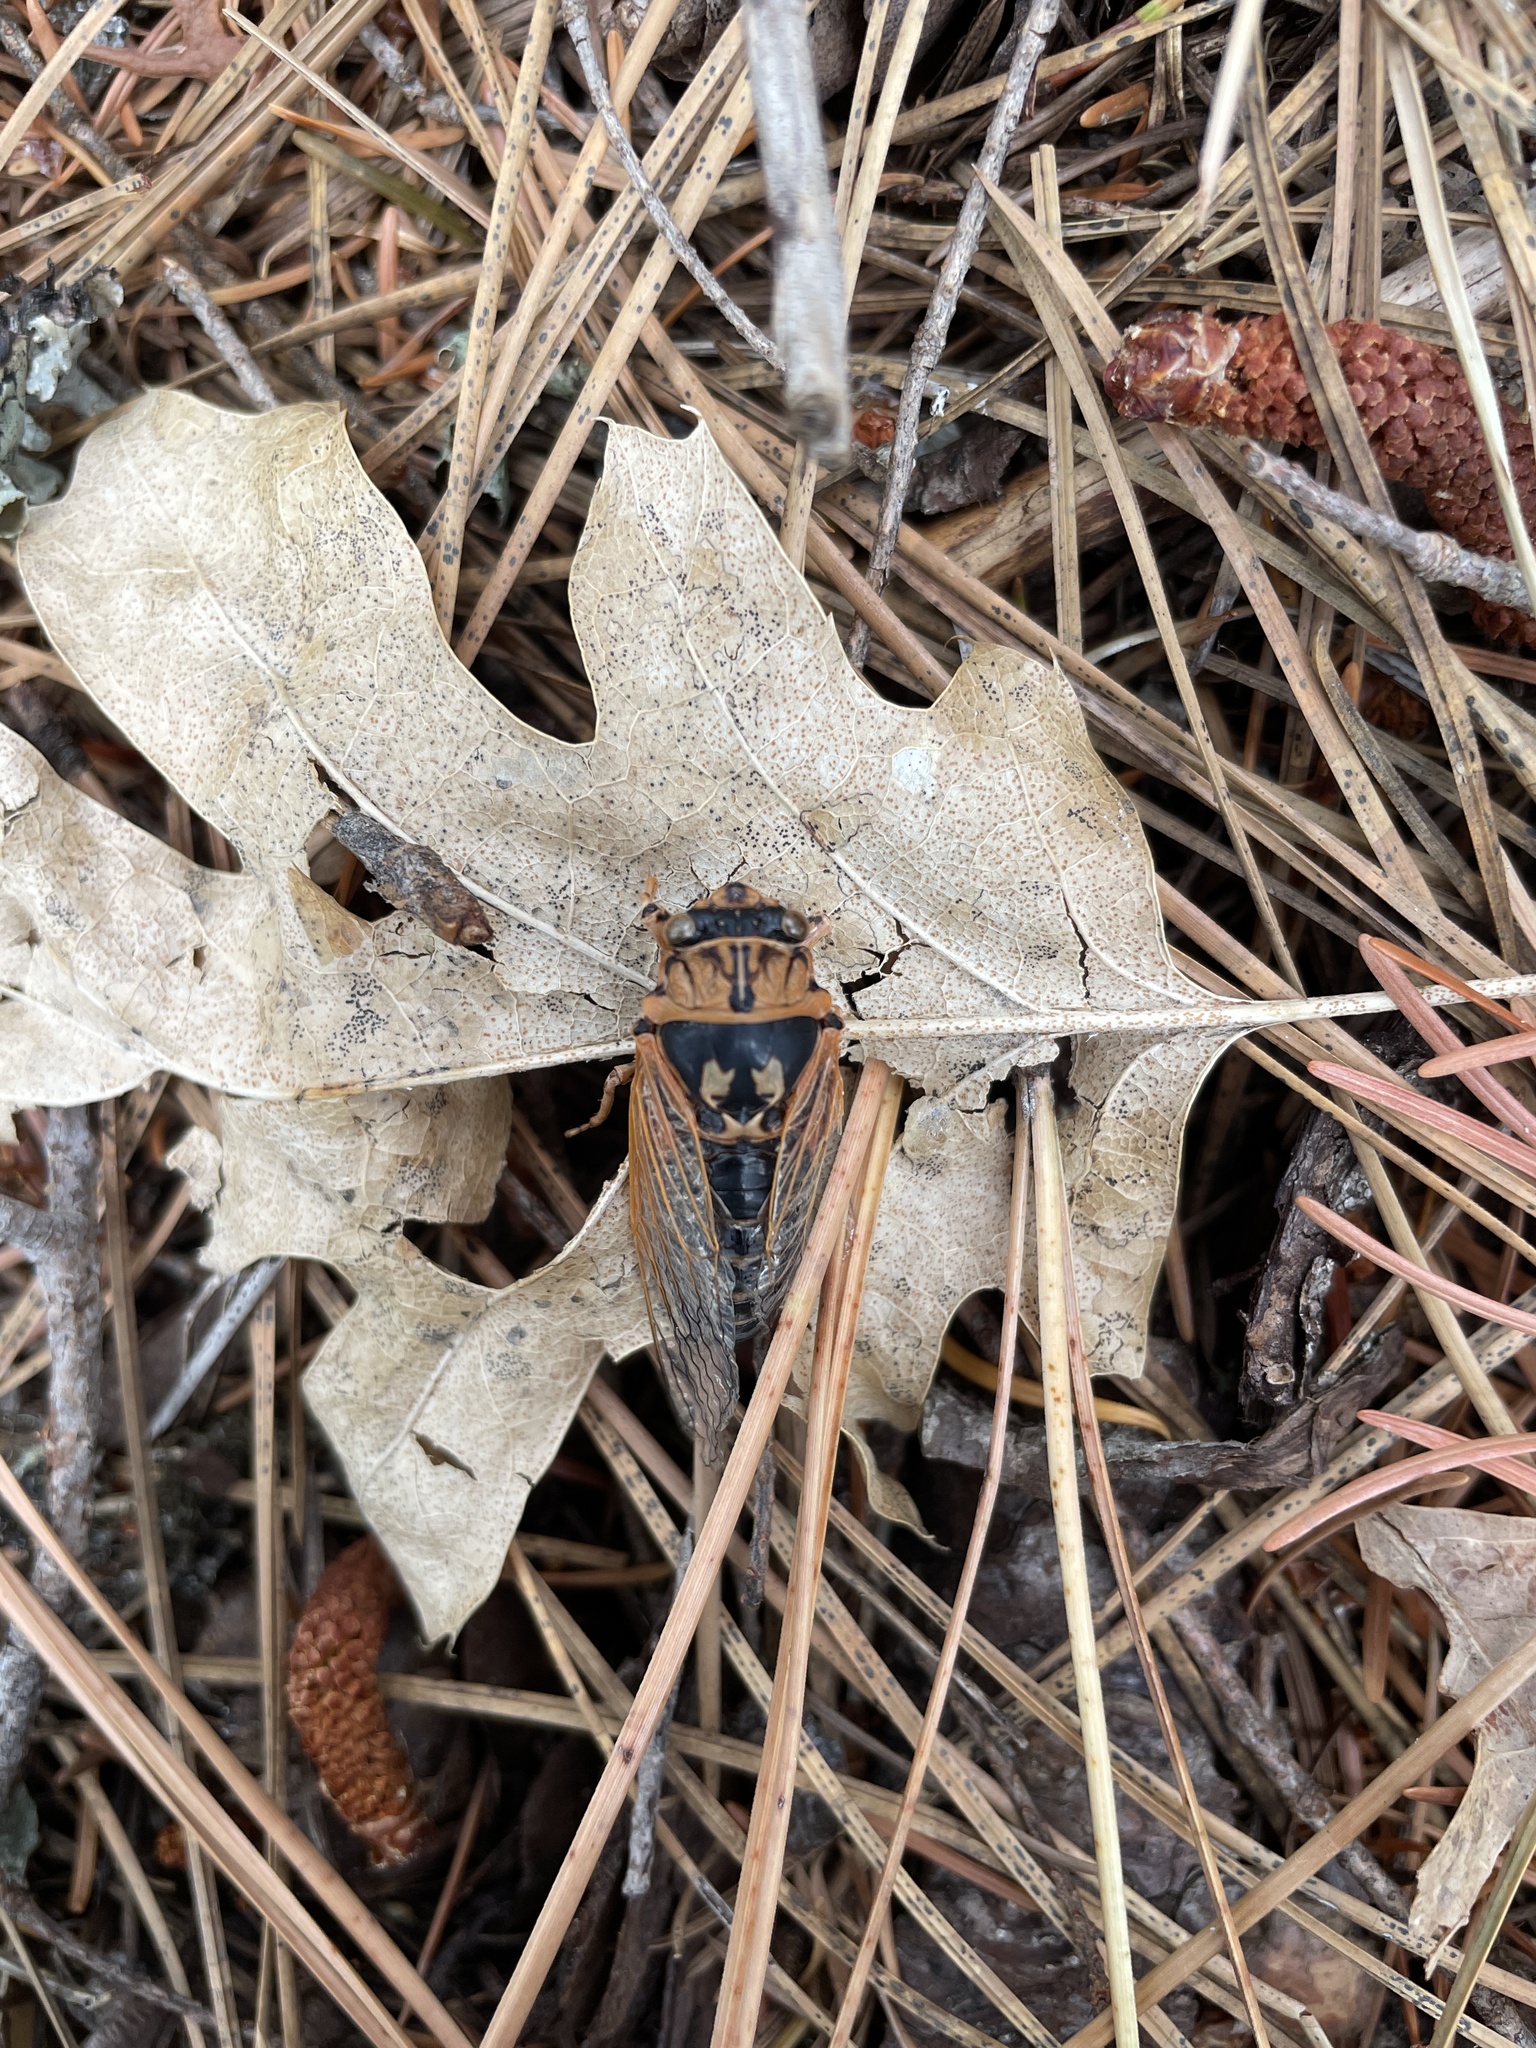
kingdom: Animalia
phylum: Arthropoda
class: Insecta
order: Hemiptera
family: Cicadidae
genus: Okanagana
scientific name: Okanagana vandykei
